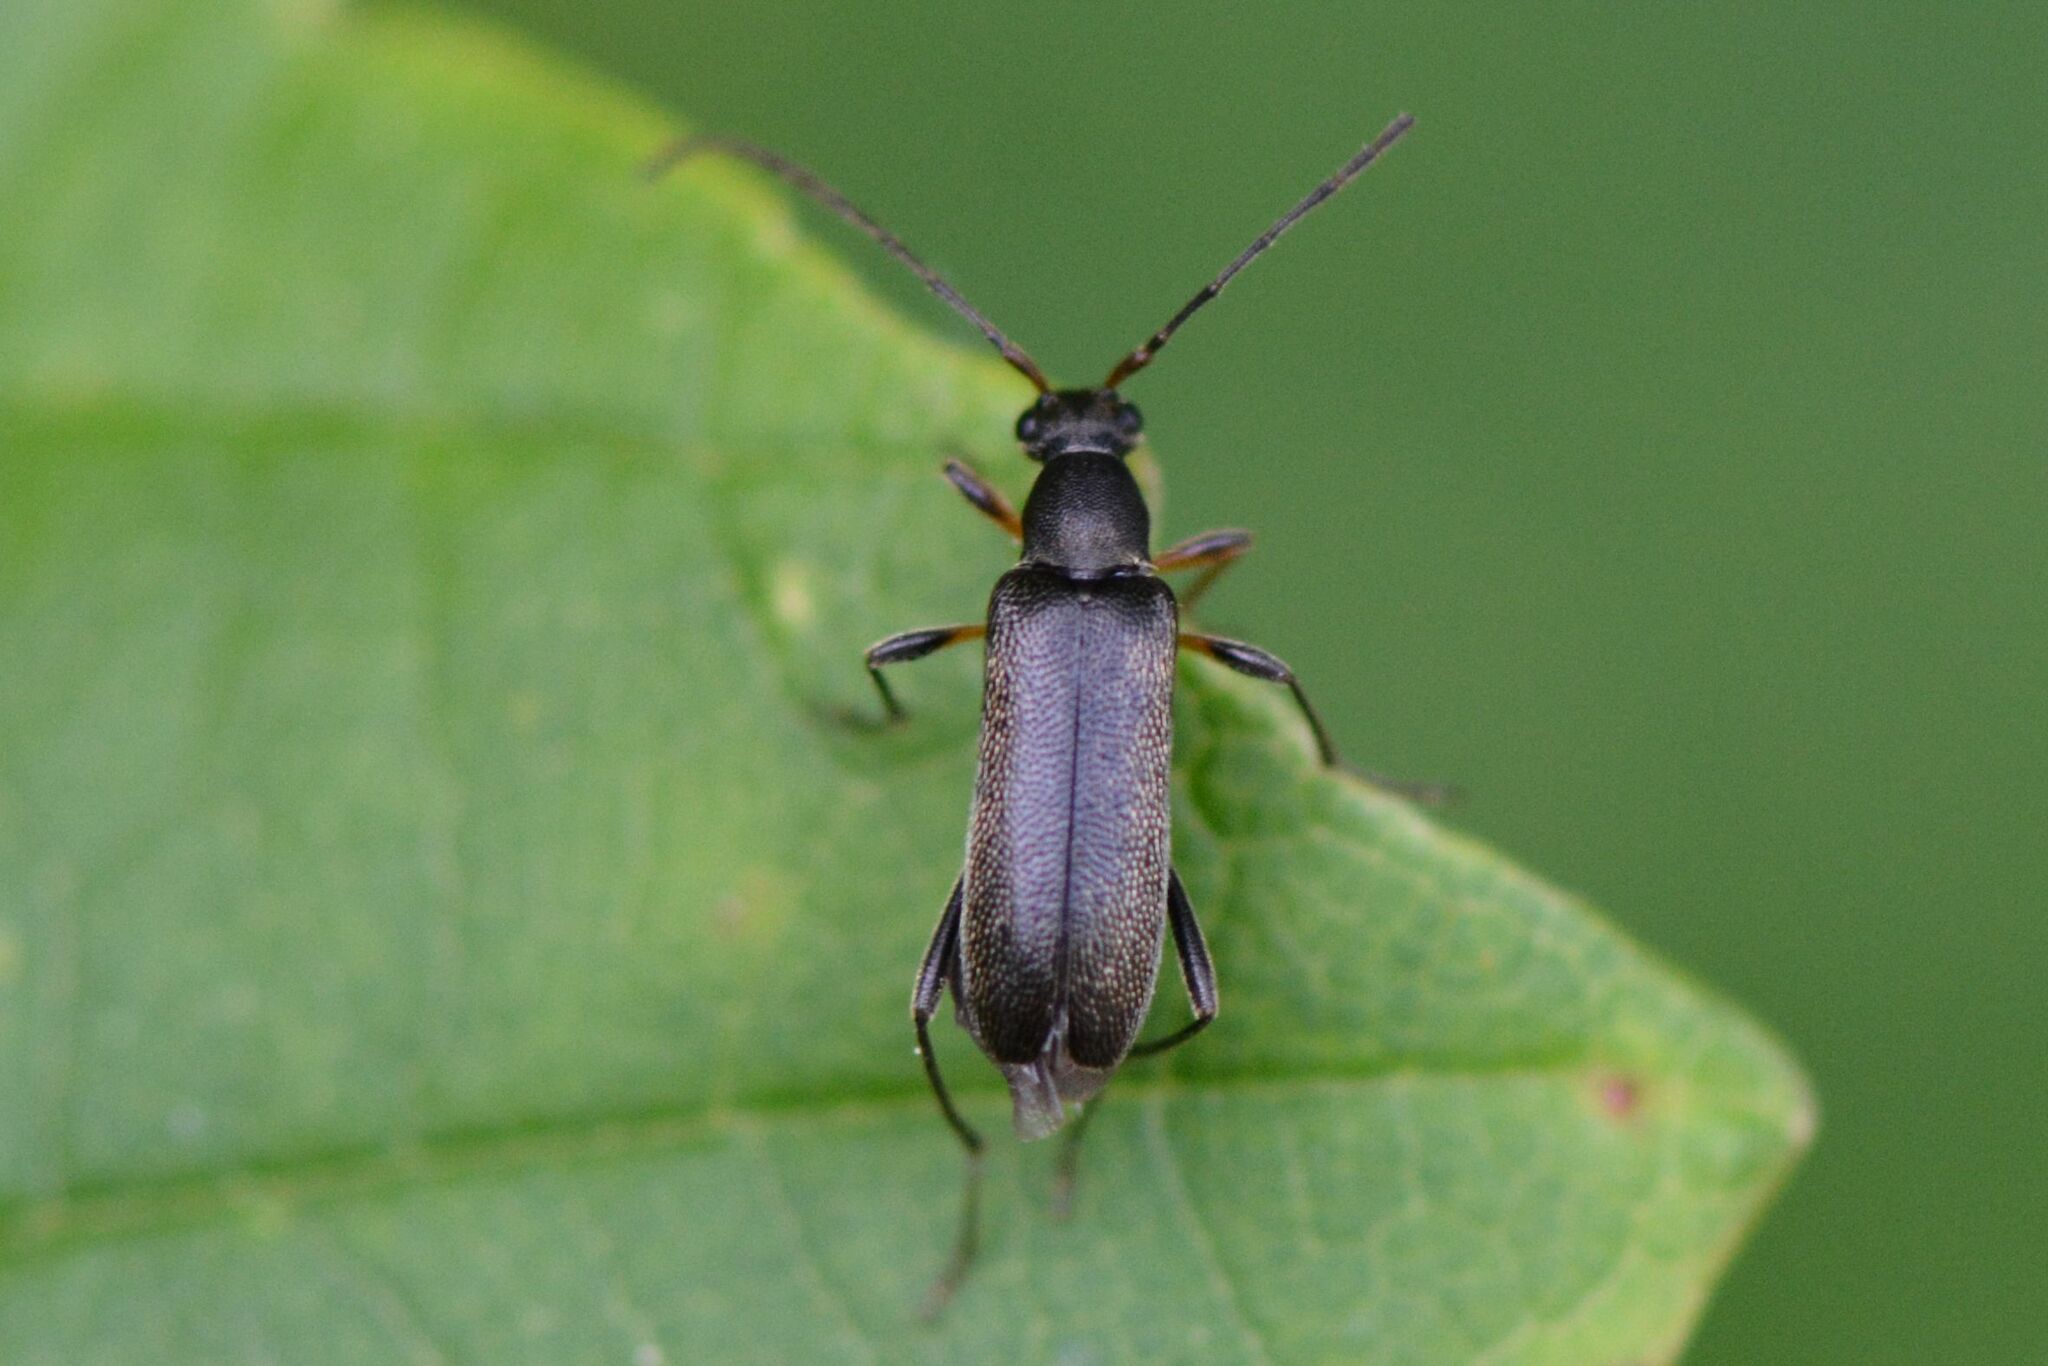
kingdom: Animalia
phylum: Arthropoda
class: Insecta
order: Coleoptera
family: Cerambycidae
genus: Grammoptera
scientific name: Grammoptera ruficornis
